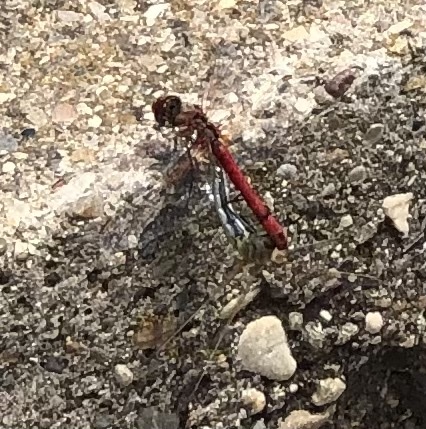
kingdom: Animalia
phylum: Arthropoda
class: Insecta
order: Odonata
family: Libellulidae
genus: Sympetrum
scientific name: Sympetrum fonscolombii
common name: Red-veined darter
